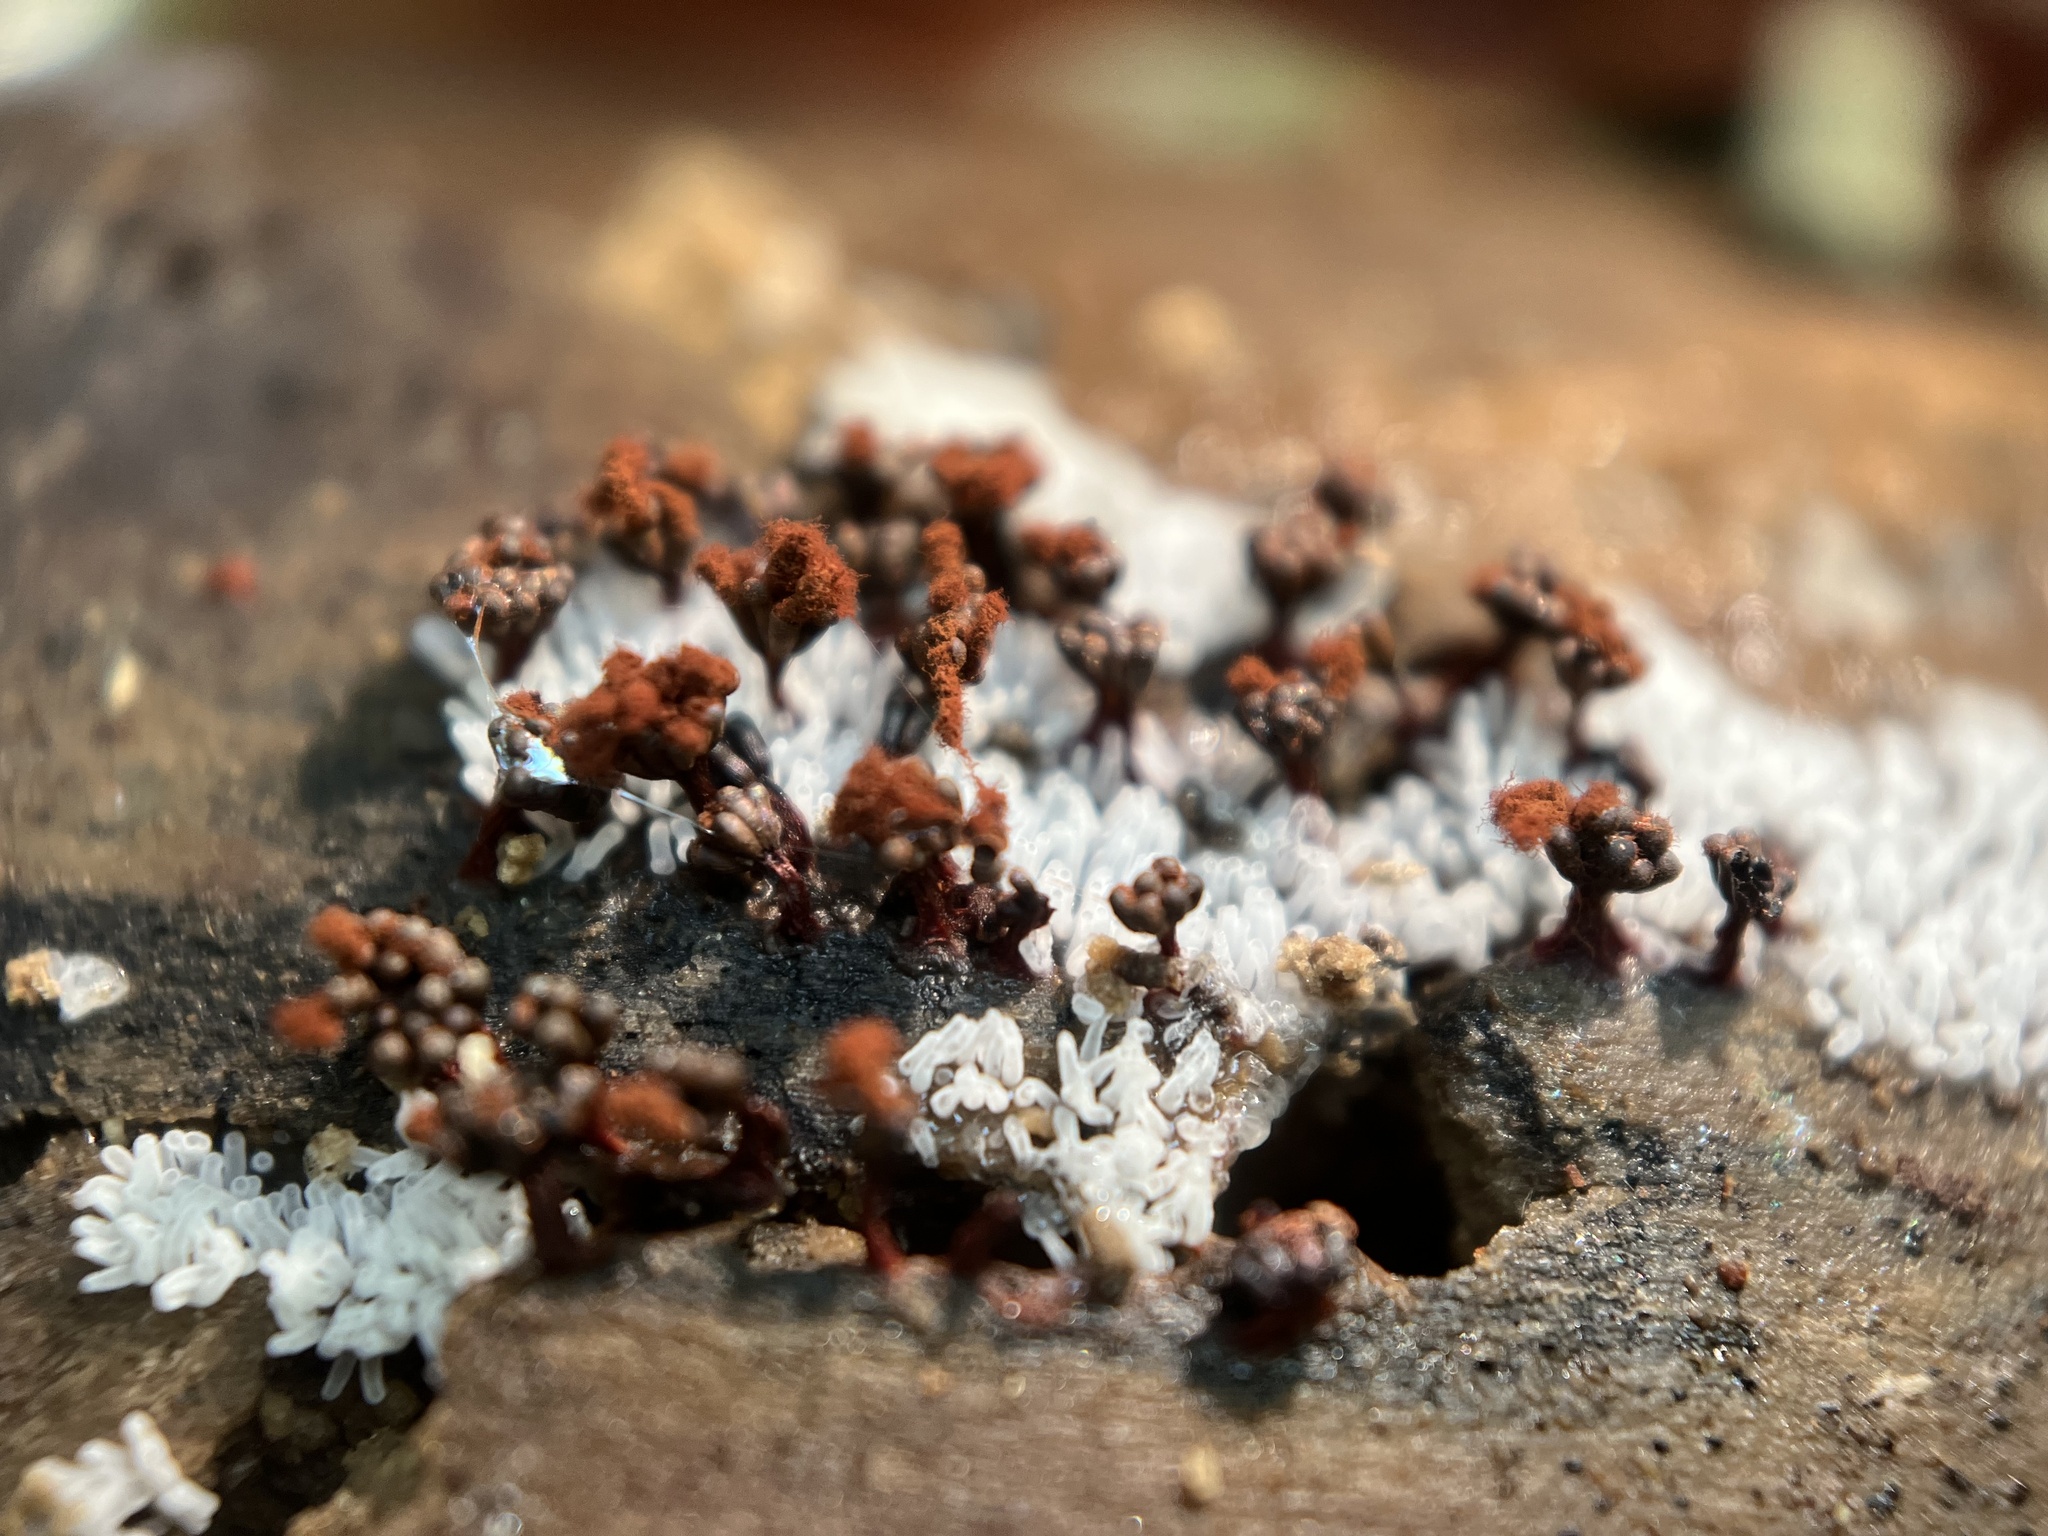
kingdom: Protozoa
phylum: Mycetozoa
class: Myxomycetes
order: Trichiales
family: Trichiaceae
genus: Metatrichia
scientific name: Metatrichia vesparia
